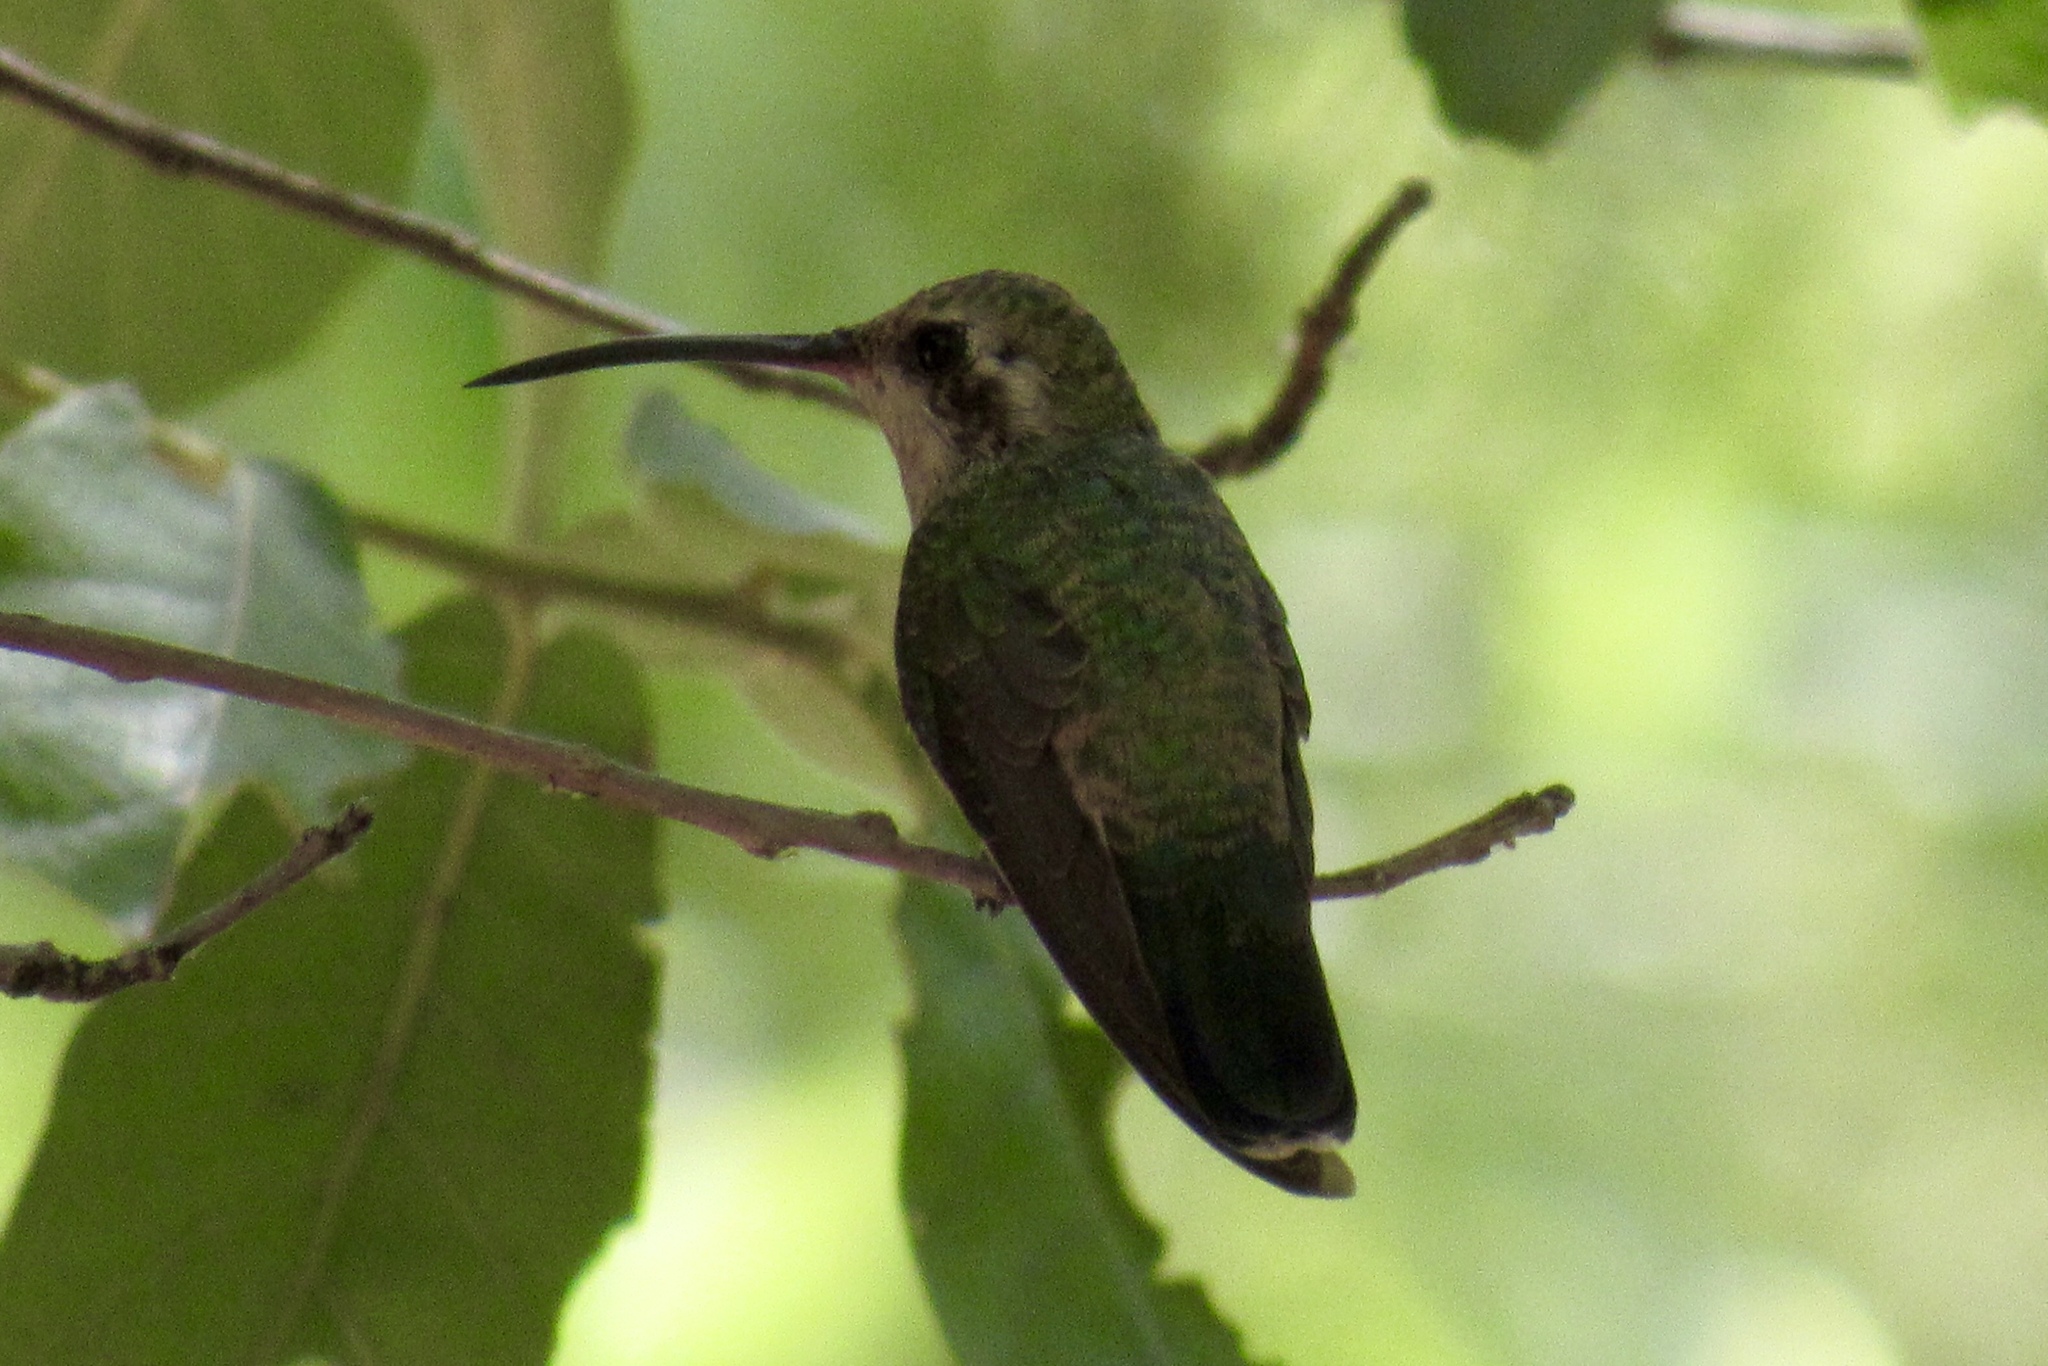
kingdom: Animalia
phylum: Chordata
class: Aves
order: Apodiformes
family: Trochilidae
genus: Cynanthus
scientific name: Cynanthus latirostris
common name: Broad-billed hummingbird
